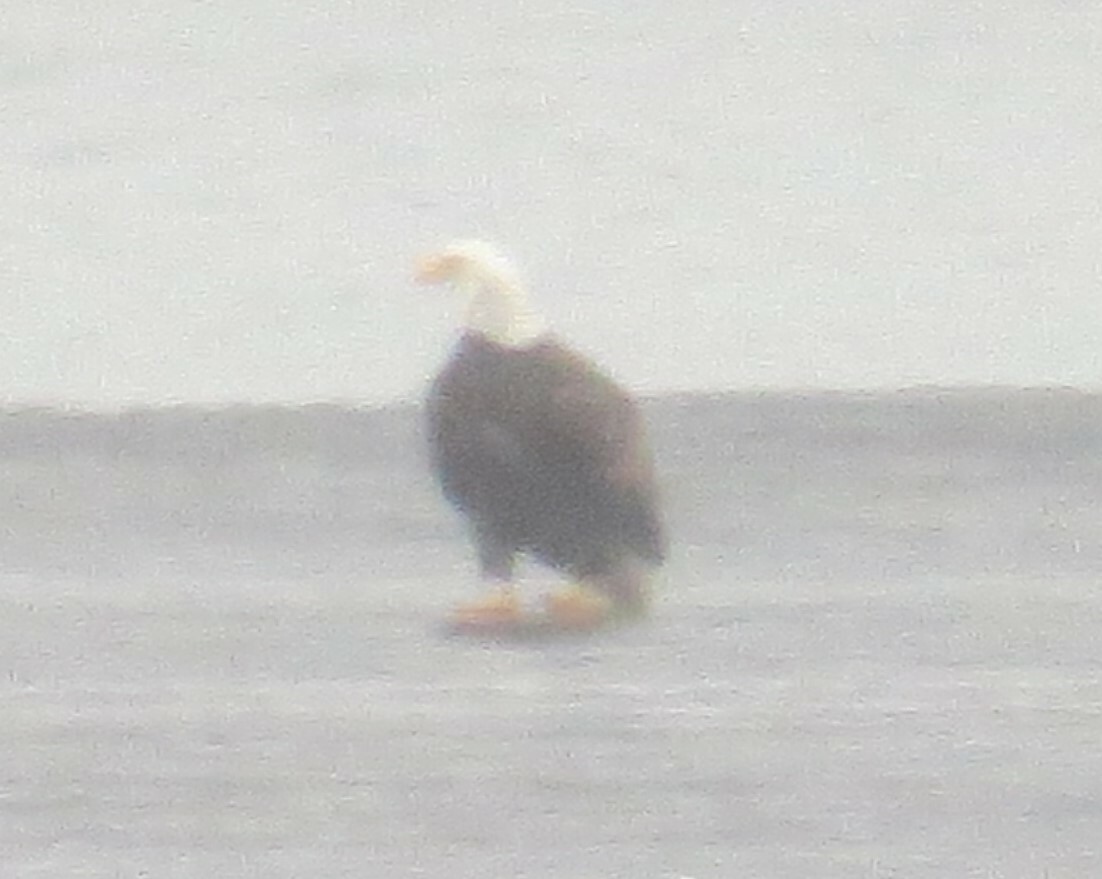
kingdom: Animalia
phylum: Chordata
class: Aves
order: Accipitriformes
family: Accipitridae
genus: Haliaeetus
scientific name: Haliaeetus leucocephalus
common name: Bald eagle
